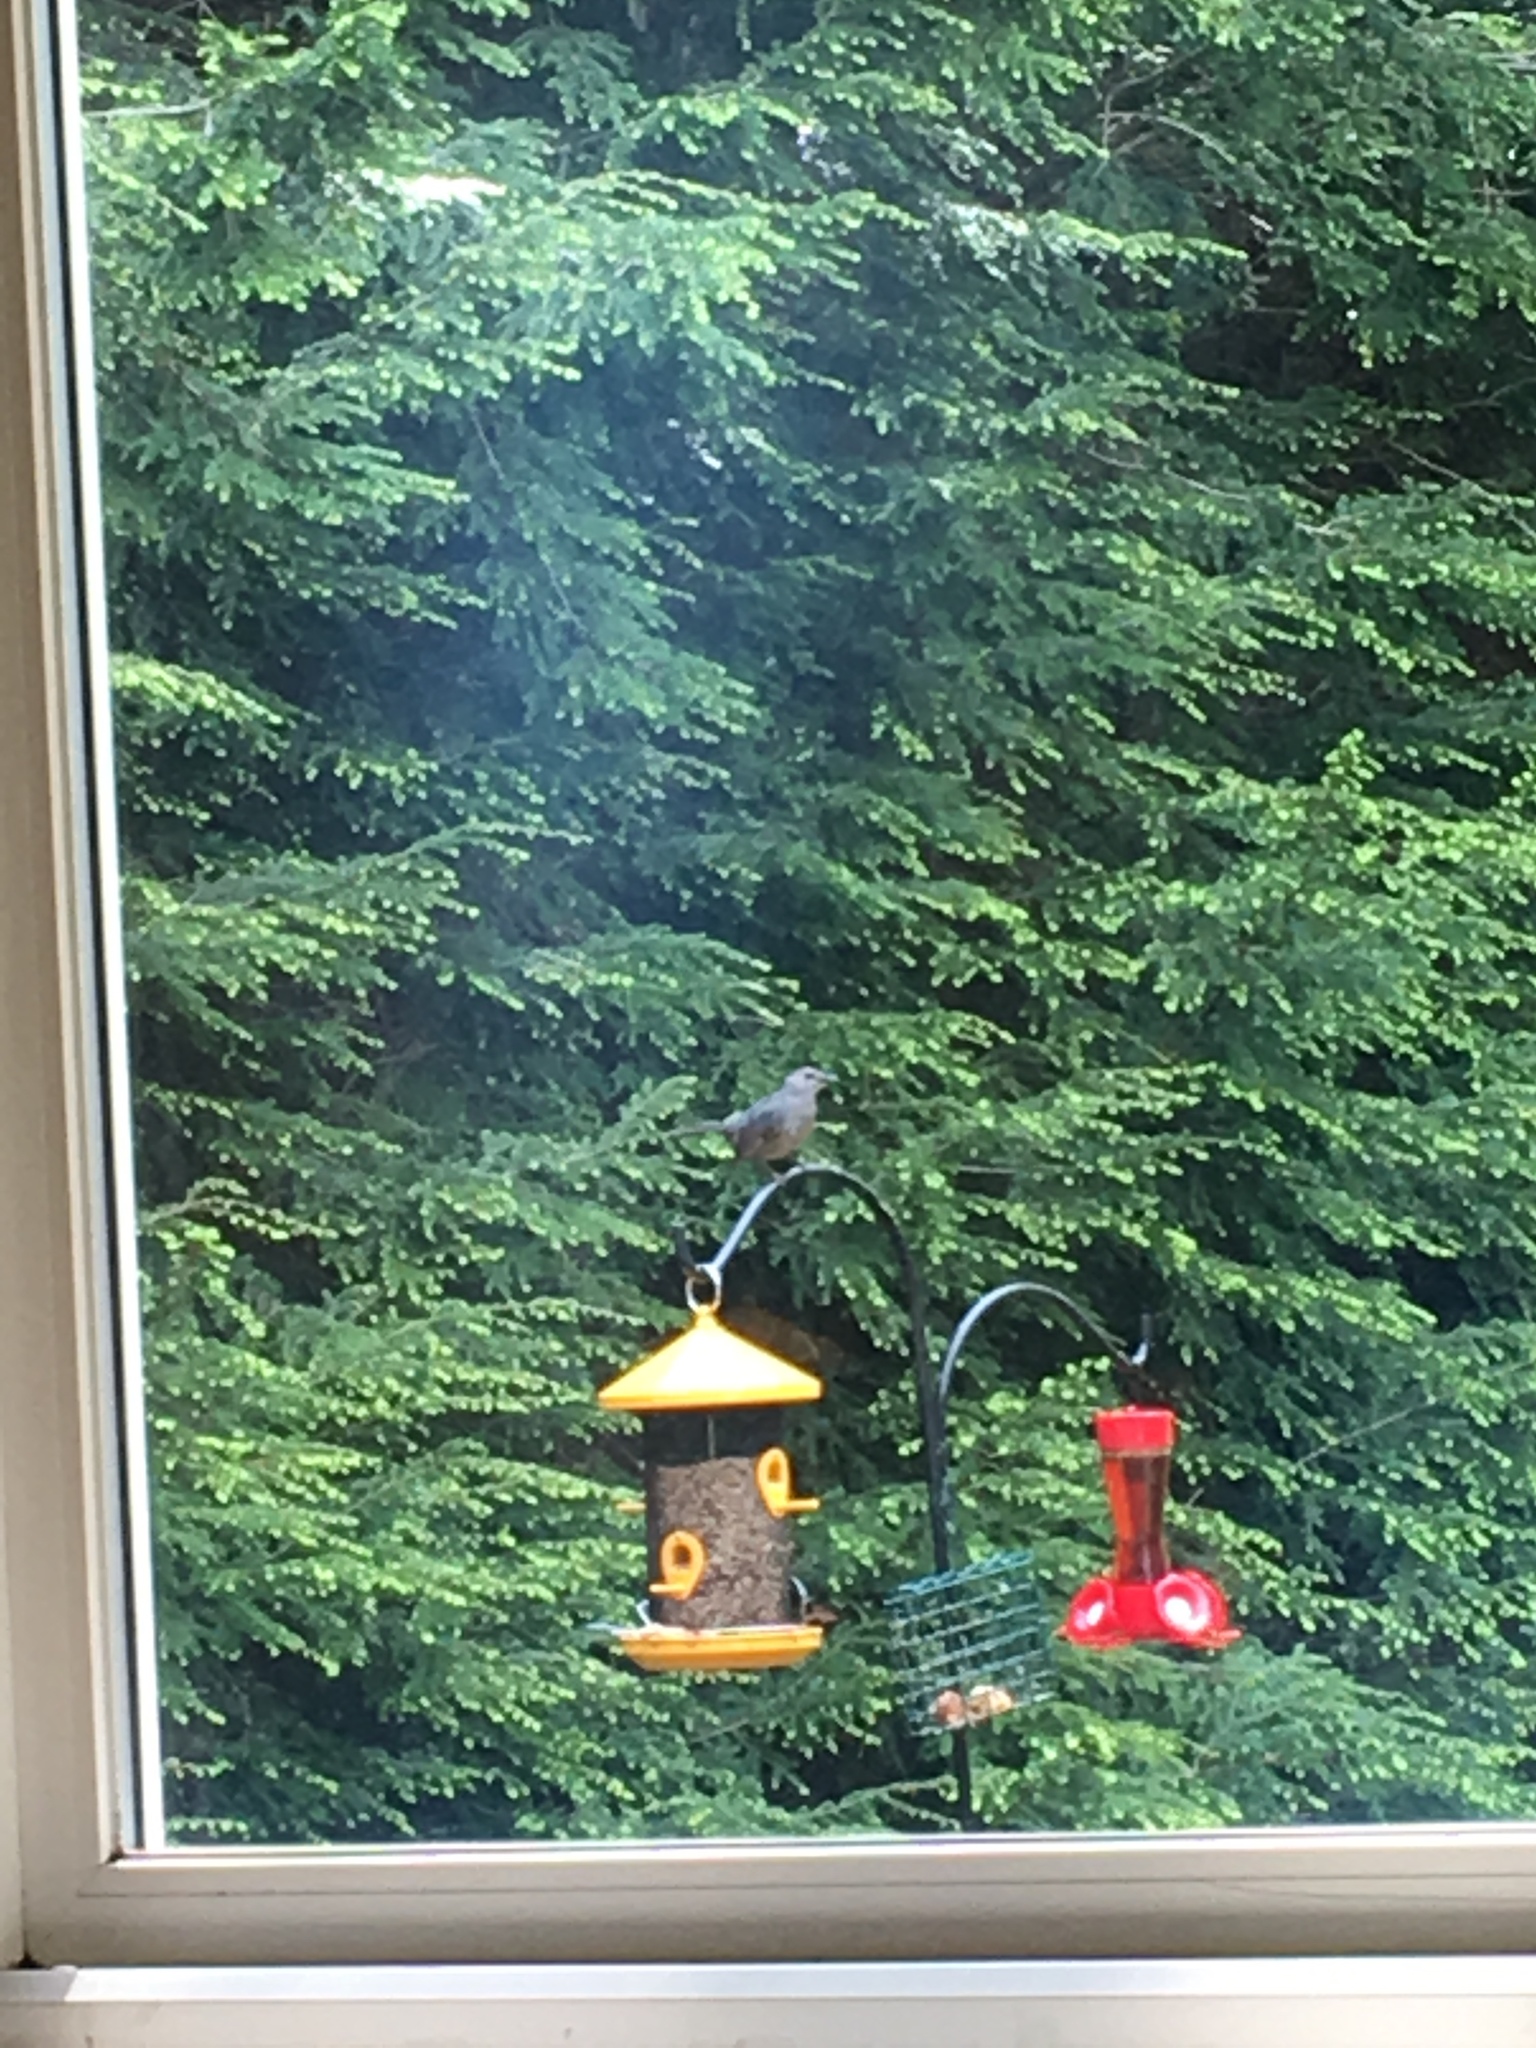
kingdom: Animalia
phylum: Chordata
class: Aves
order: Passeriformes
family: Mimidae
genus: Dumetella
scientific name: Dumetella carolinensis
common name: Gray catbird
